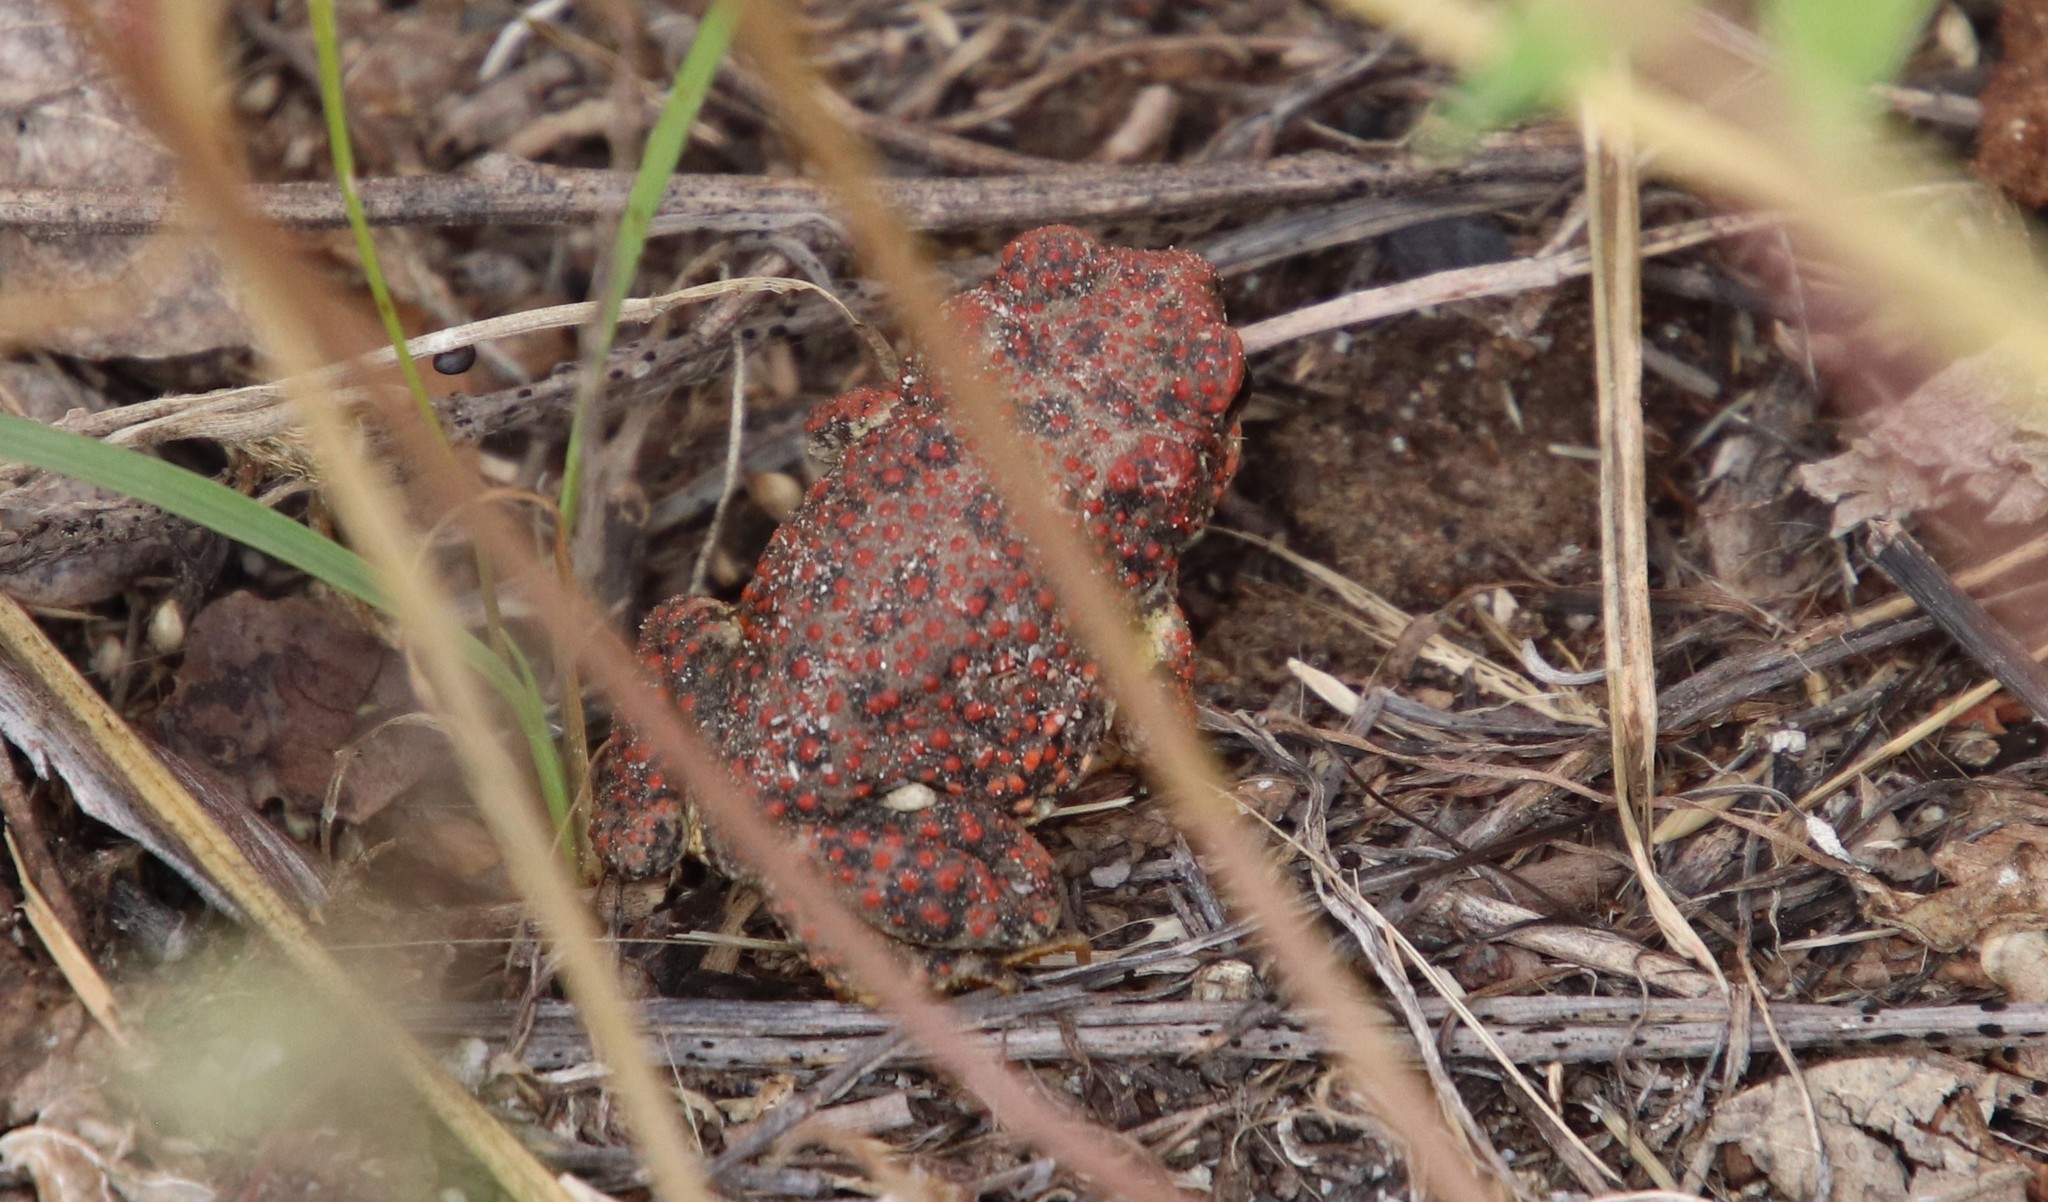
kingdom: Animalia
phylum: Chordata
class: Amphibia
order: Anura
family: Bufonidae
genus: Anaxyrus
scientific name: Anaxyrus punctatus
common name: Red-spotted toad
